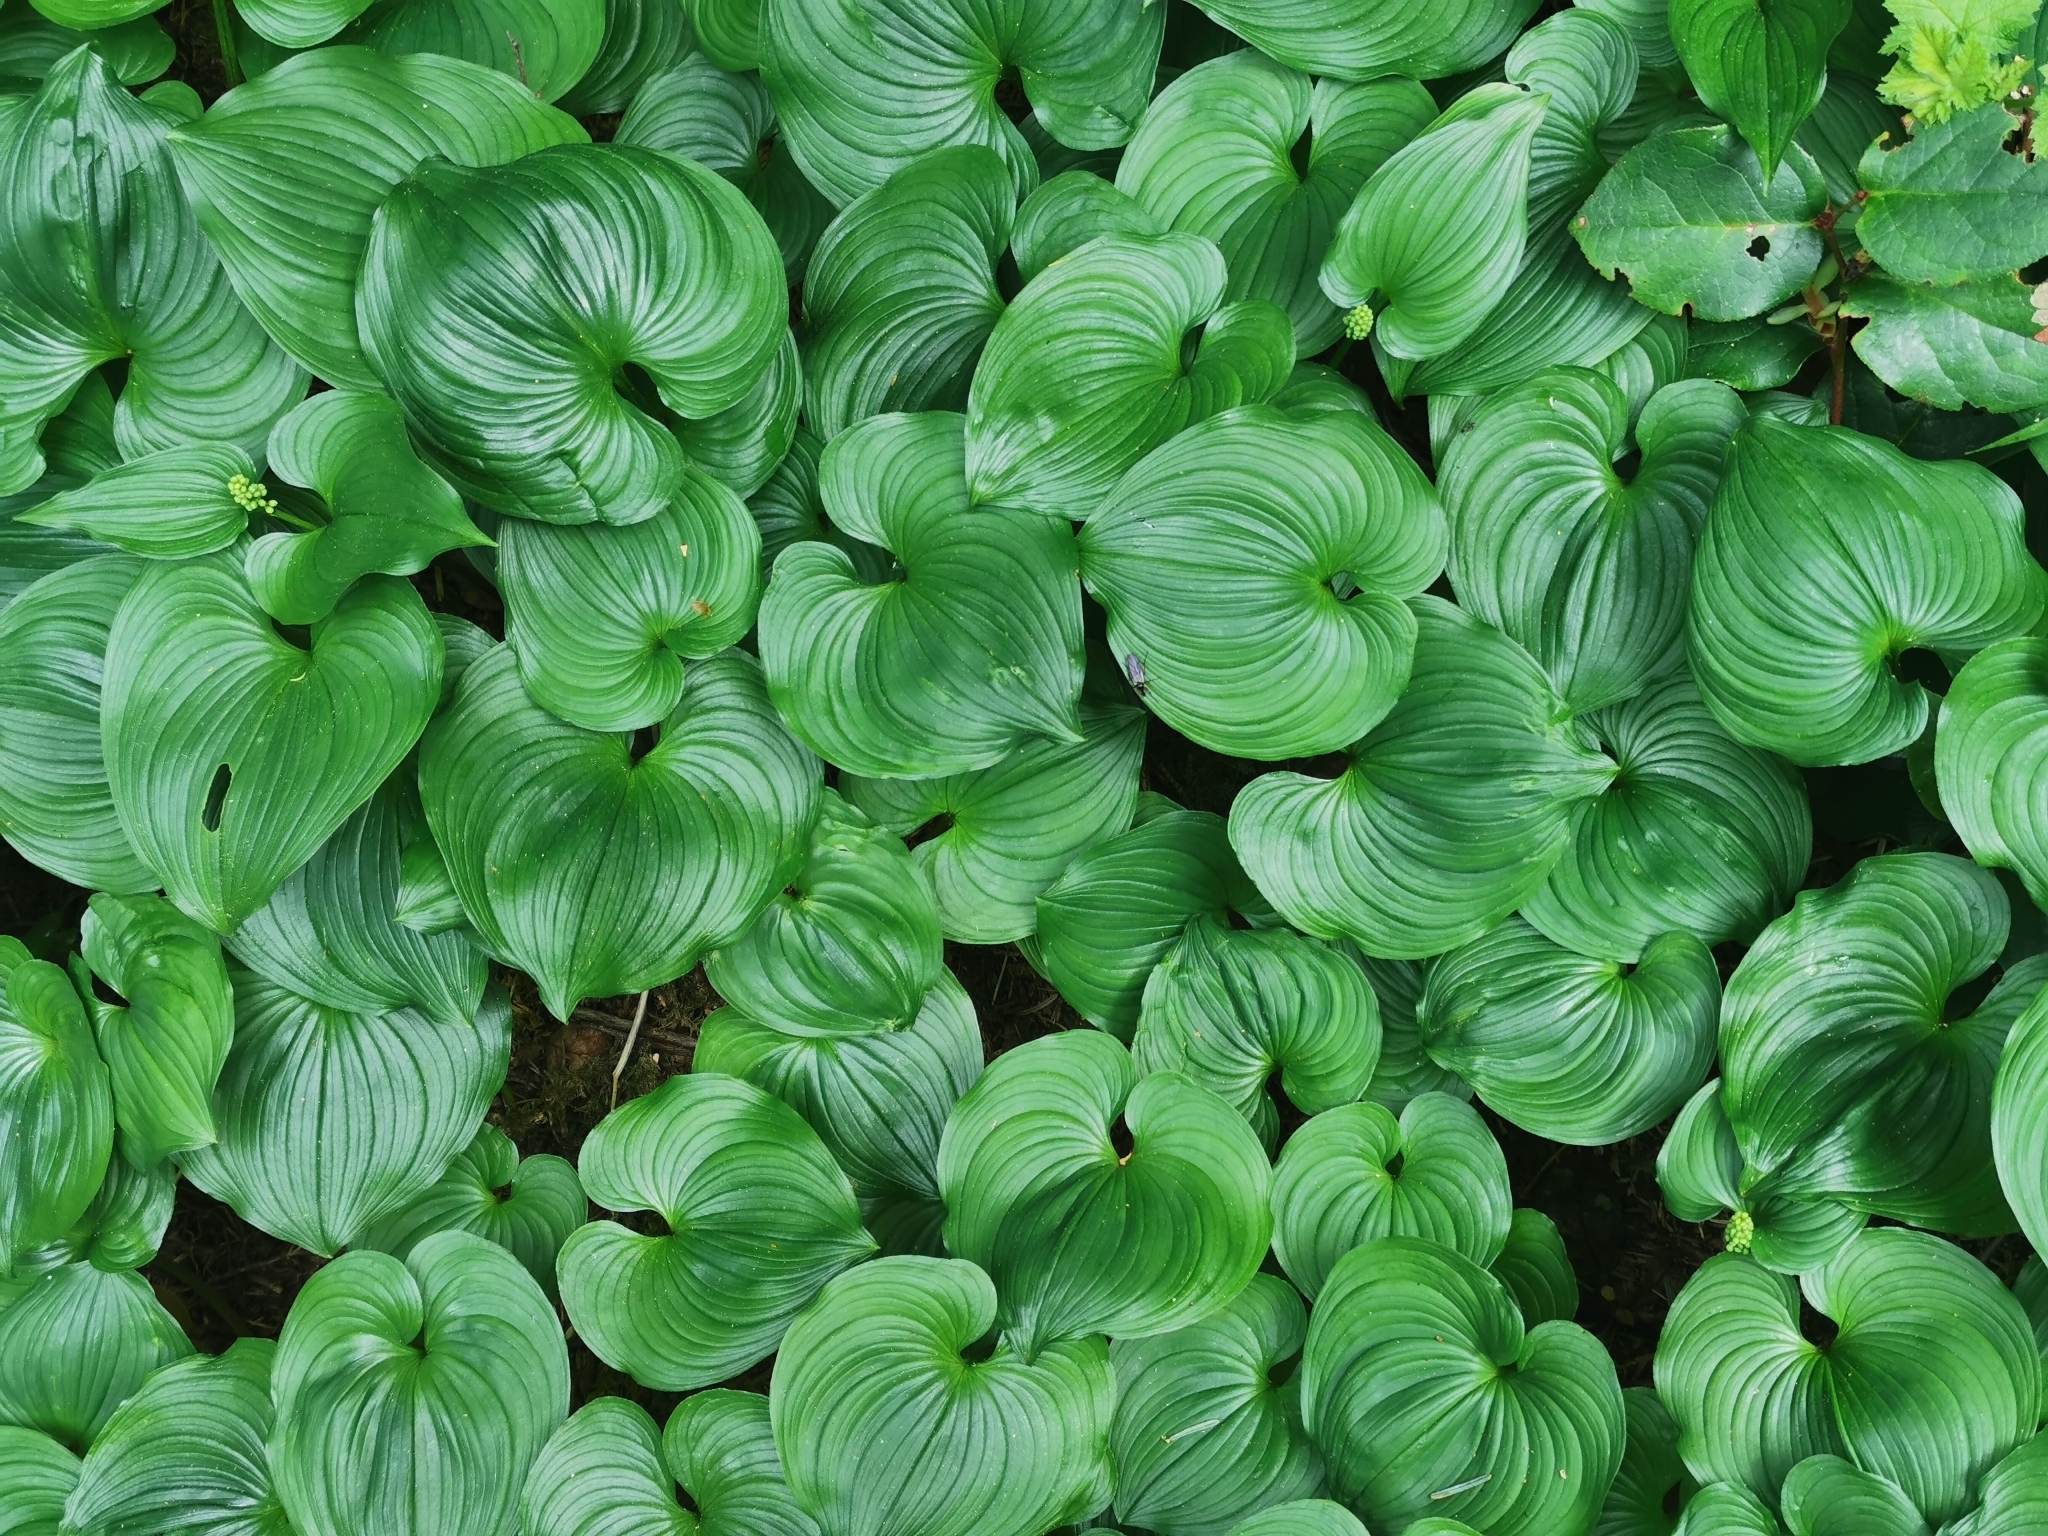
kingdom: Plantae
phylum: Tracheophyta
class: Liliopsida
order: Asparagales
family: Asparagaceae
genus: Maianthemum
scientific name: Maianthemum dilatatum
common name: False lily-of-the-valley
